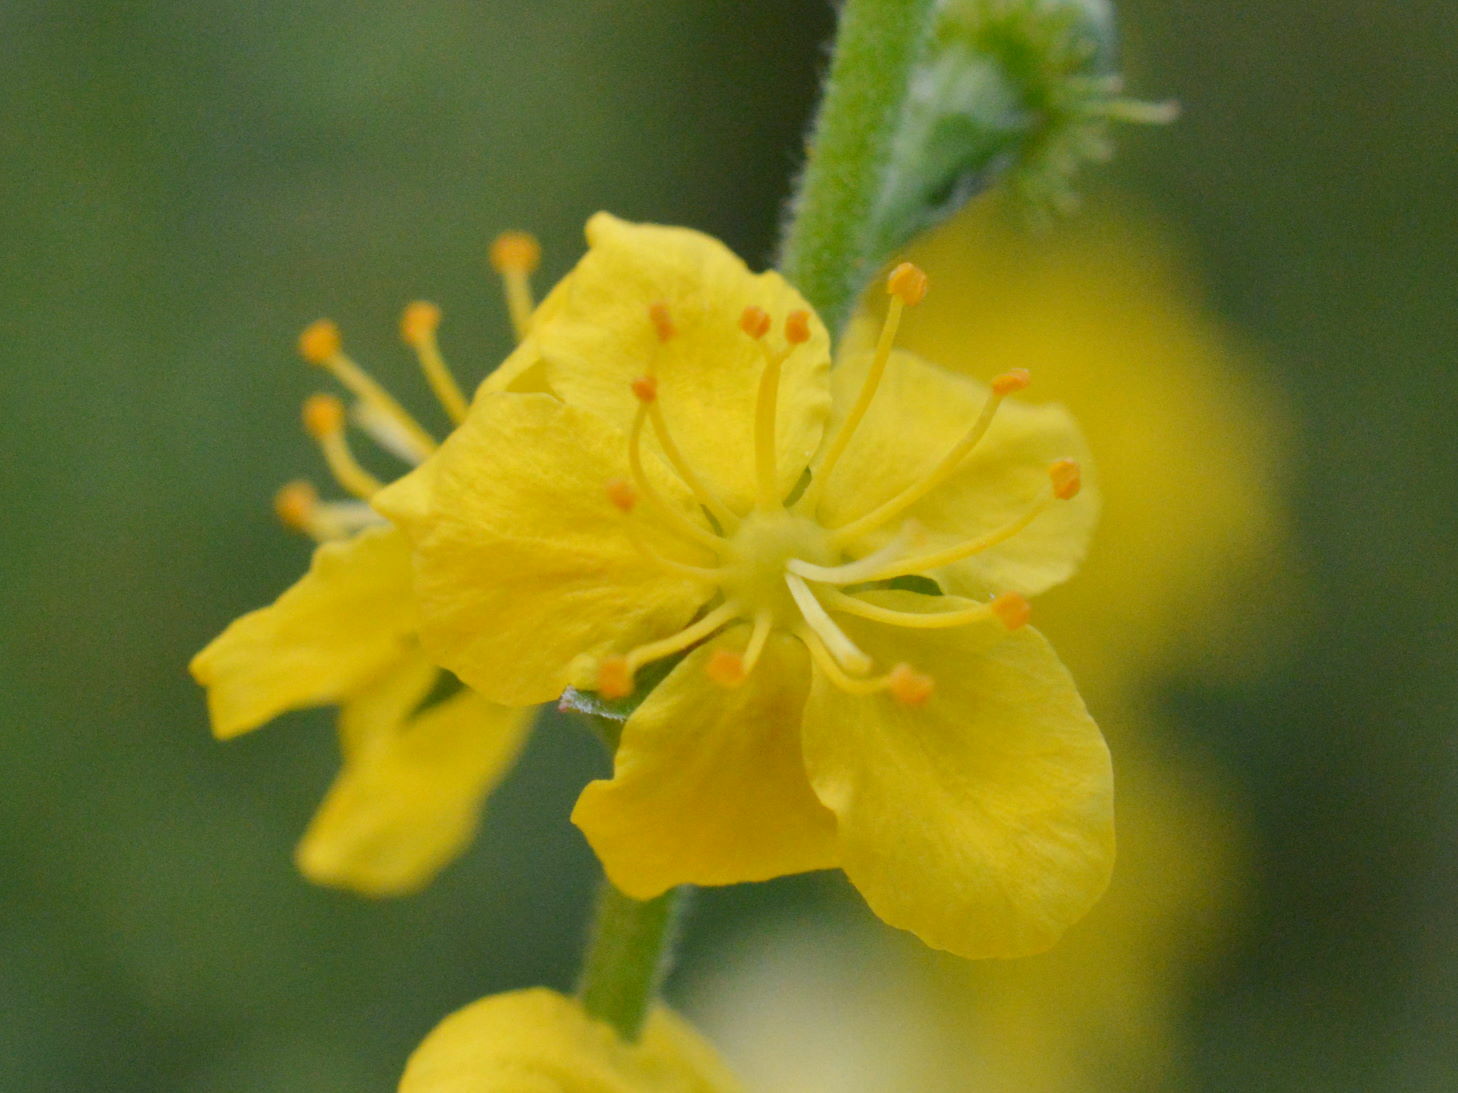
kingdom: Plantae
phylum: Tracheophyta
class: Magnoliopsida
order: Rosales
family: Rosaceae
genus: Agrimonia
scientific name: Agrimonia eupatoria
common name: Agrimony
